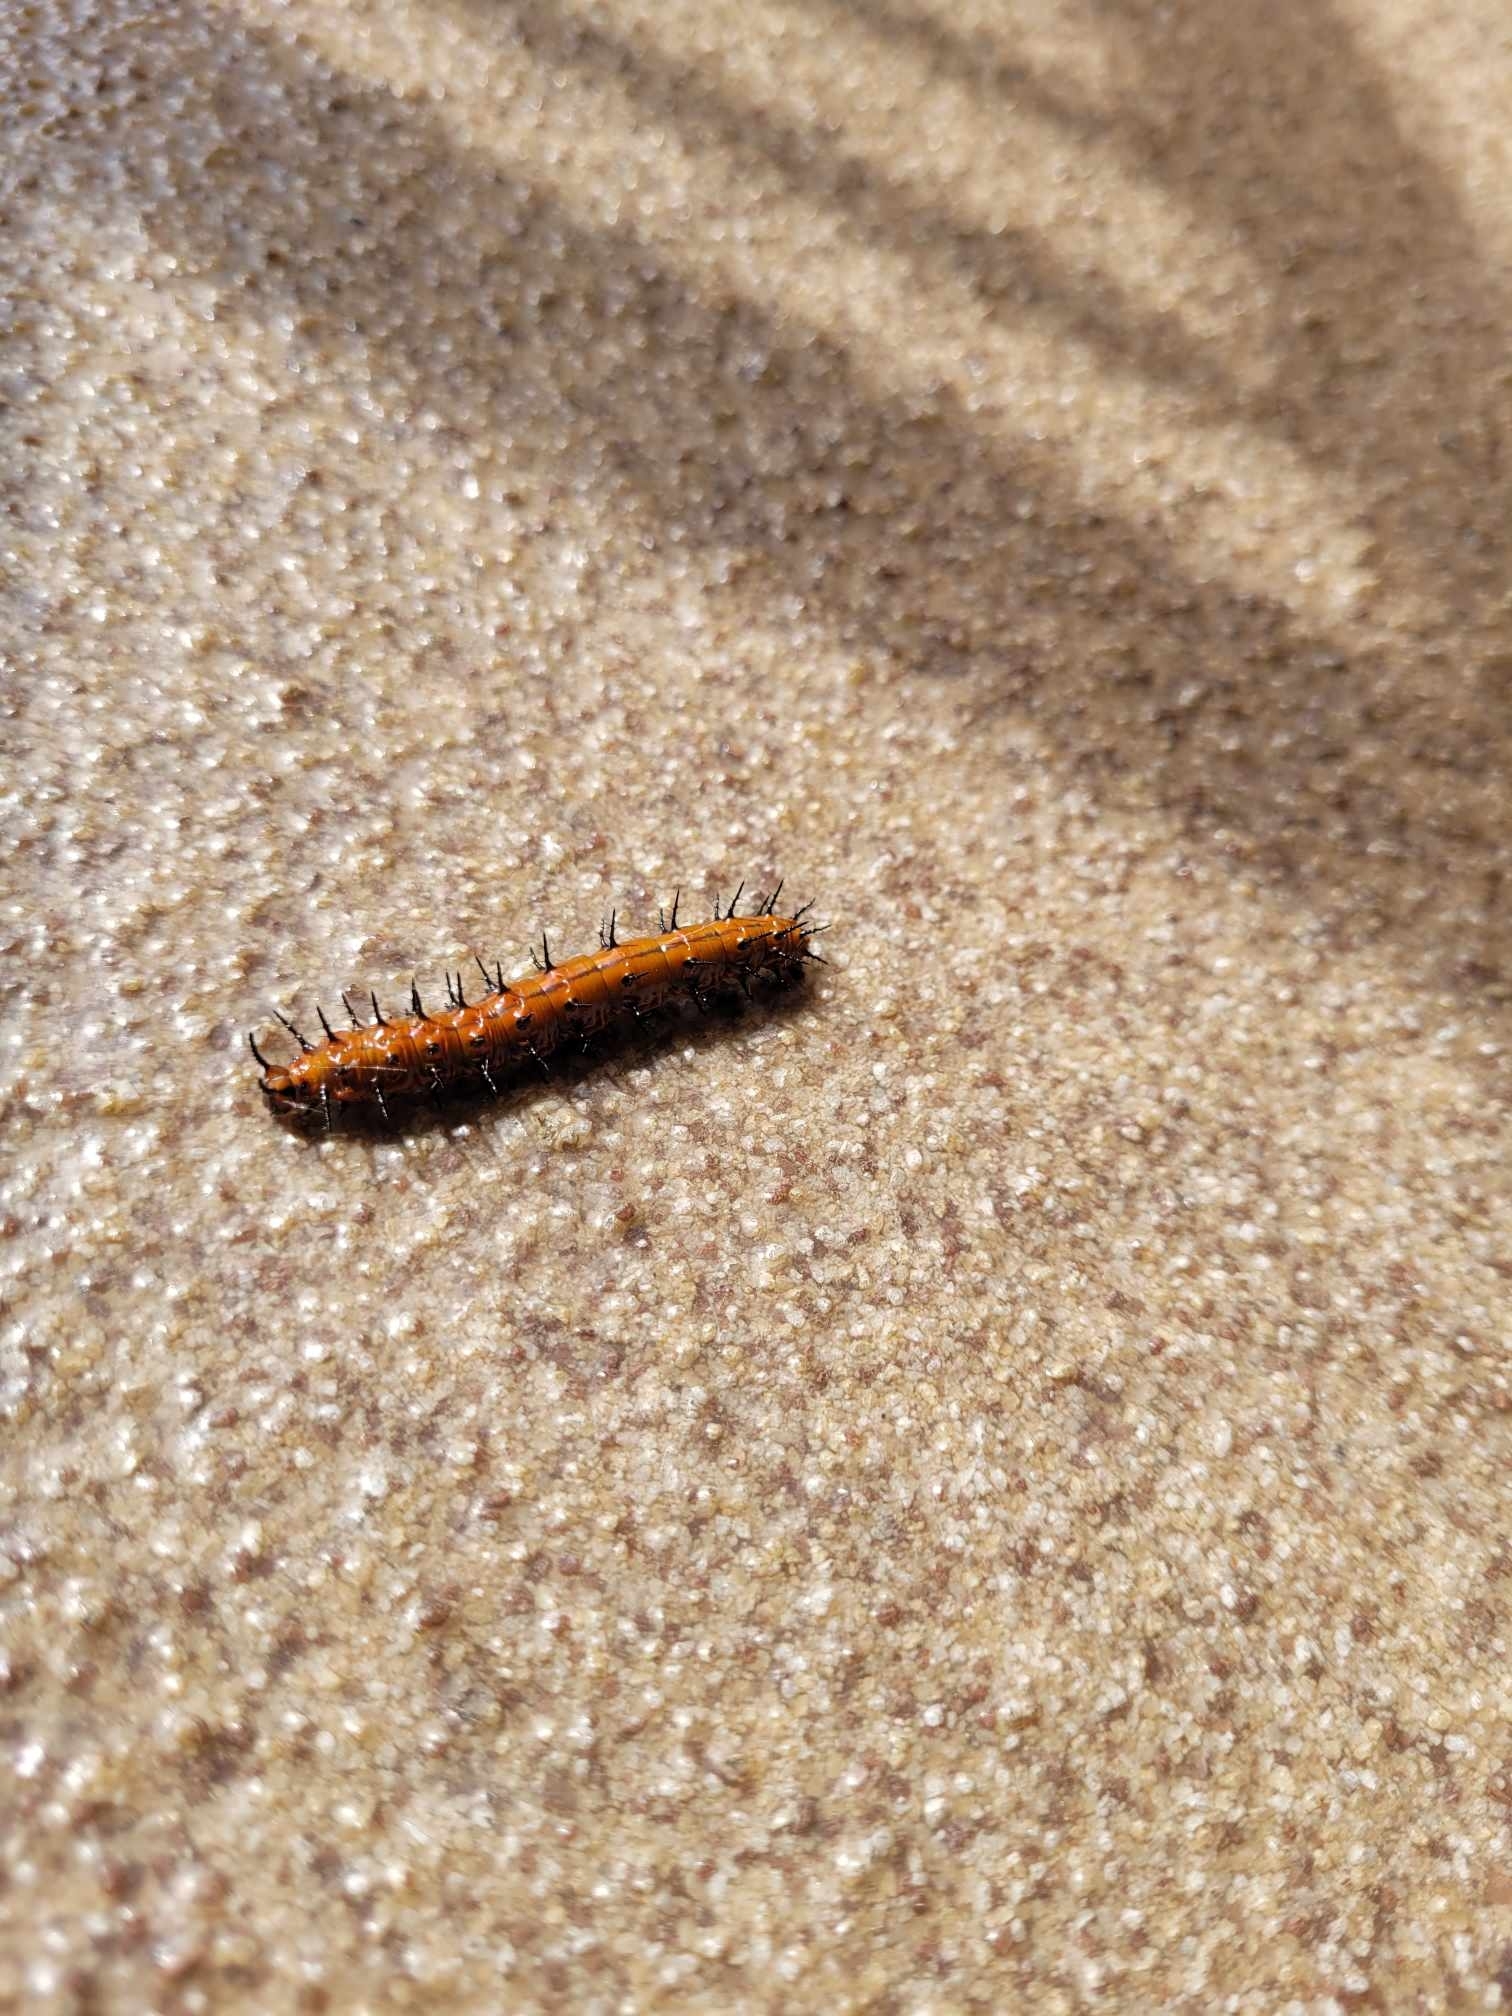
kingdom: Animalia
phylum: Arthropoda
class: Insecta
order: Lepidoptera
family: Nymphalidae
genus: Dione
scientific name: Dione vanillae
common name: Gulf fritillary
